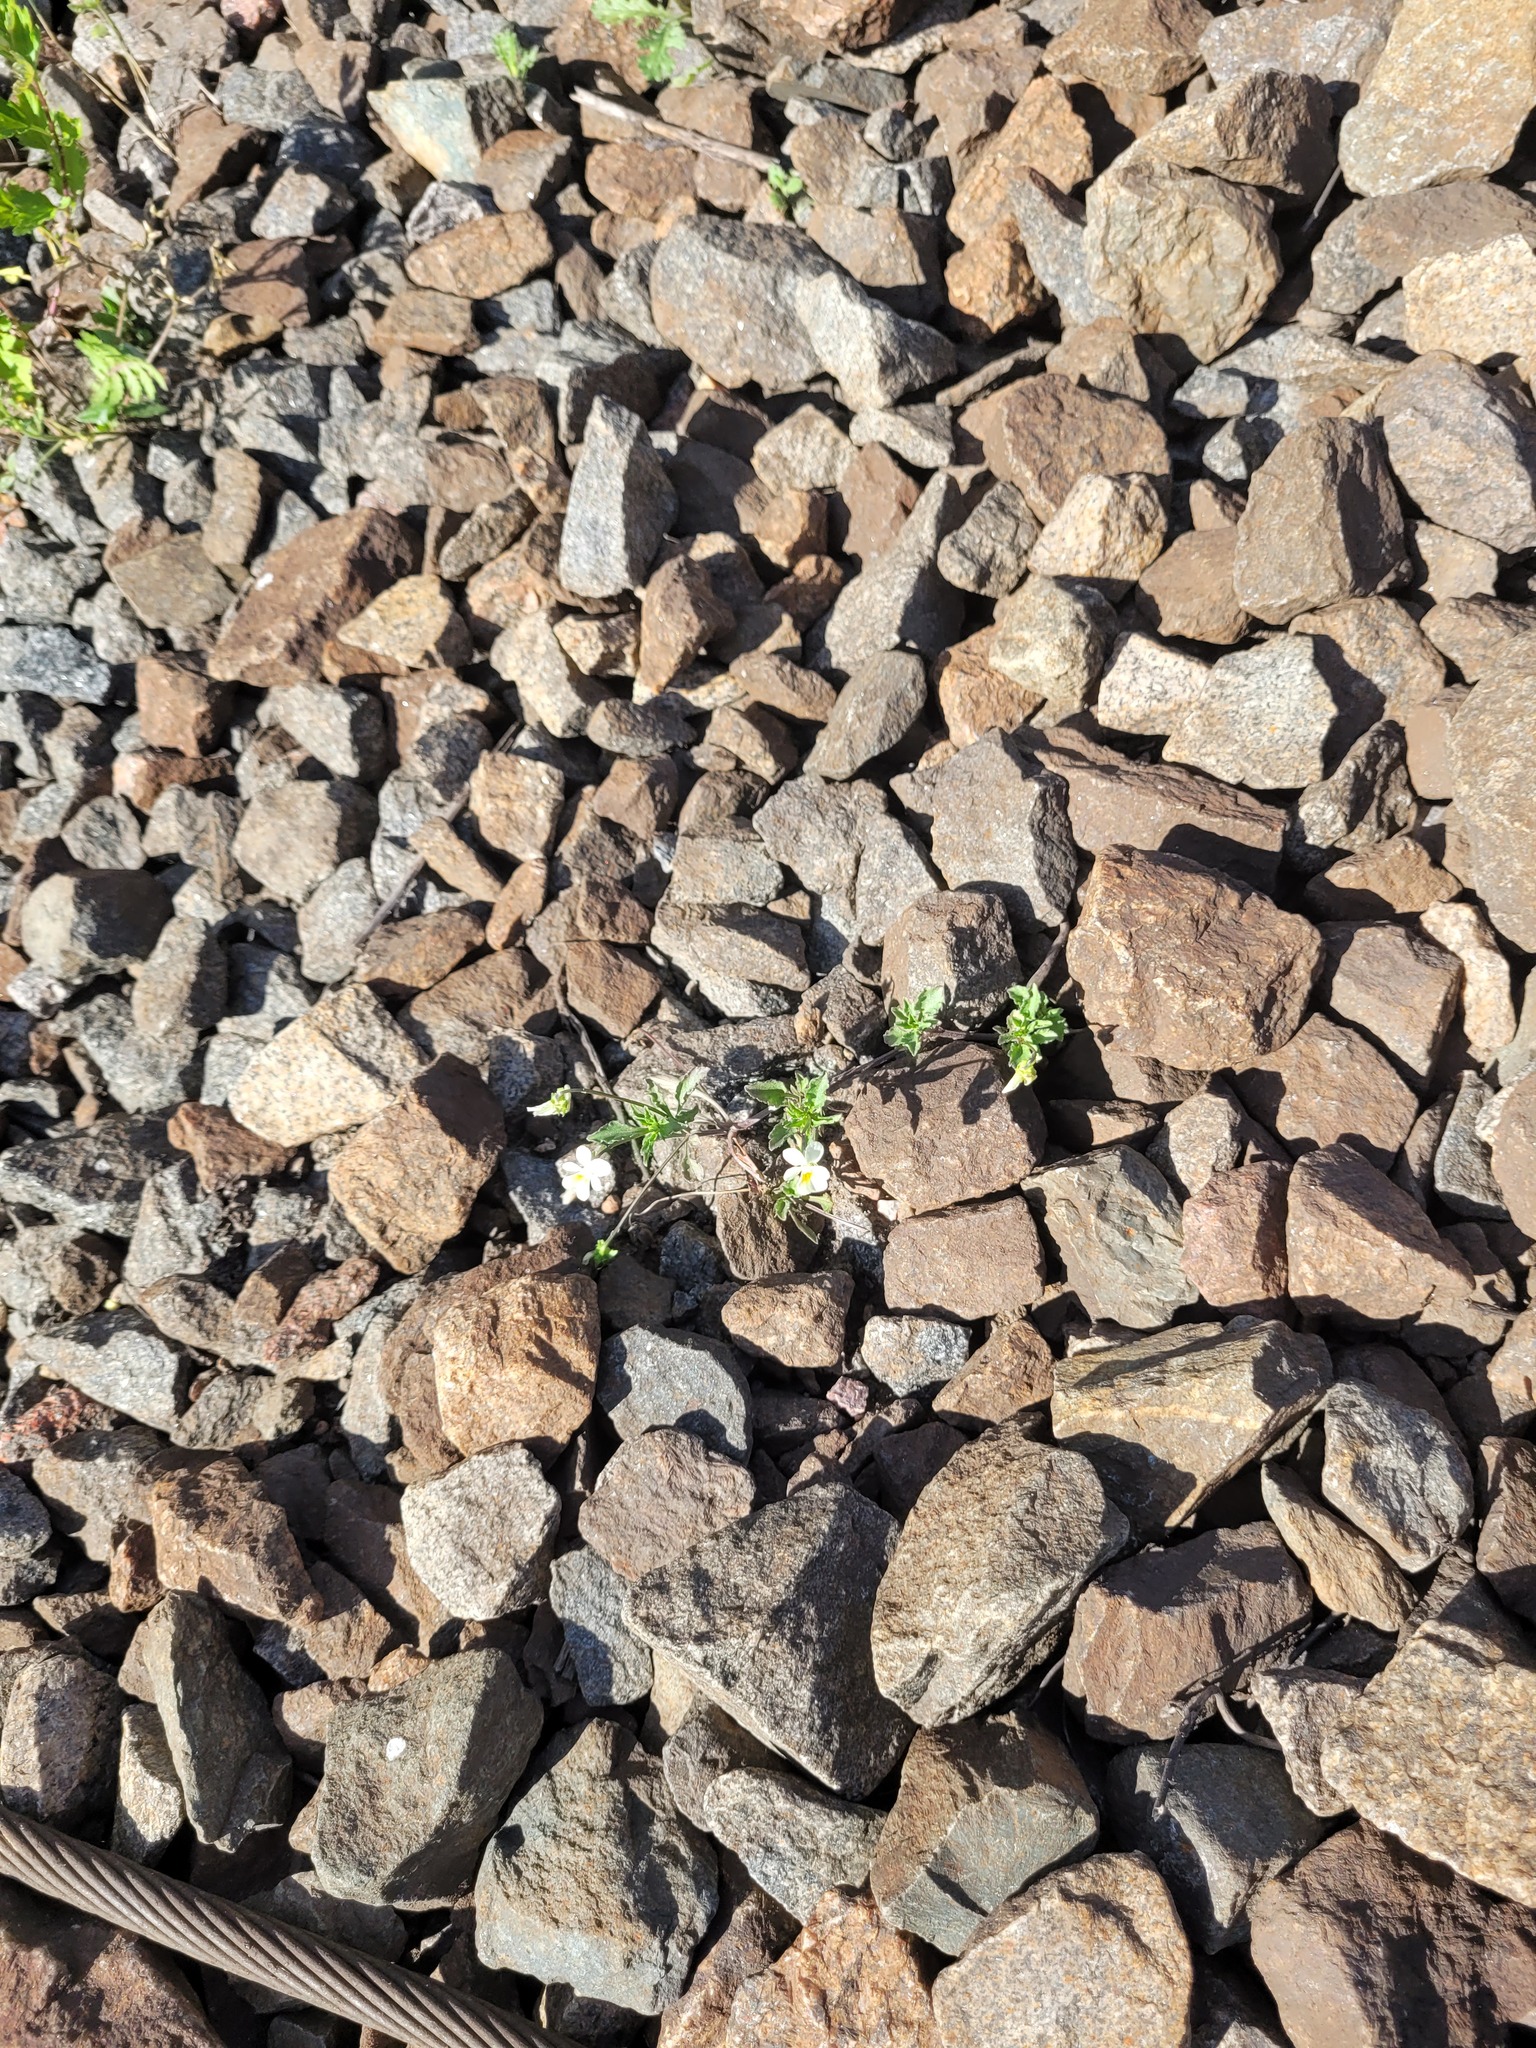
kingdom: Plantae
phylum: Tracheophyta
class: Magnoliopsida
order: Malpighiales
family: Violaceae
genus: Viola
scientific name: Viola arvensis
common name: Field pansy
